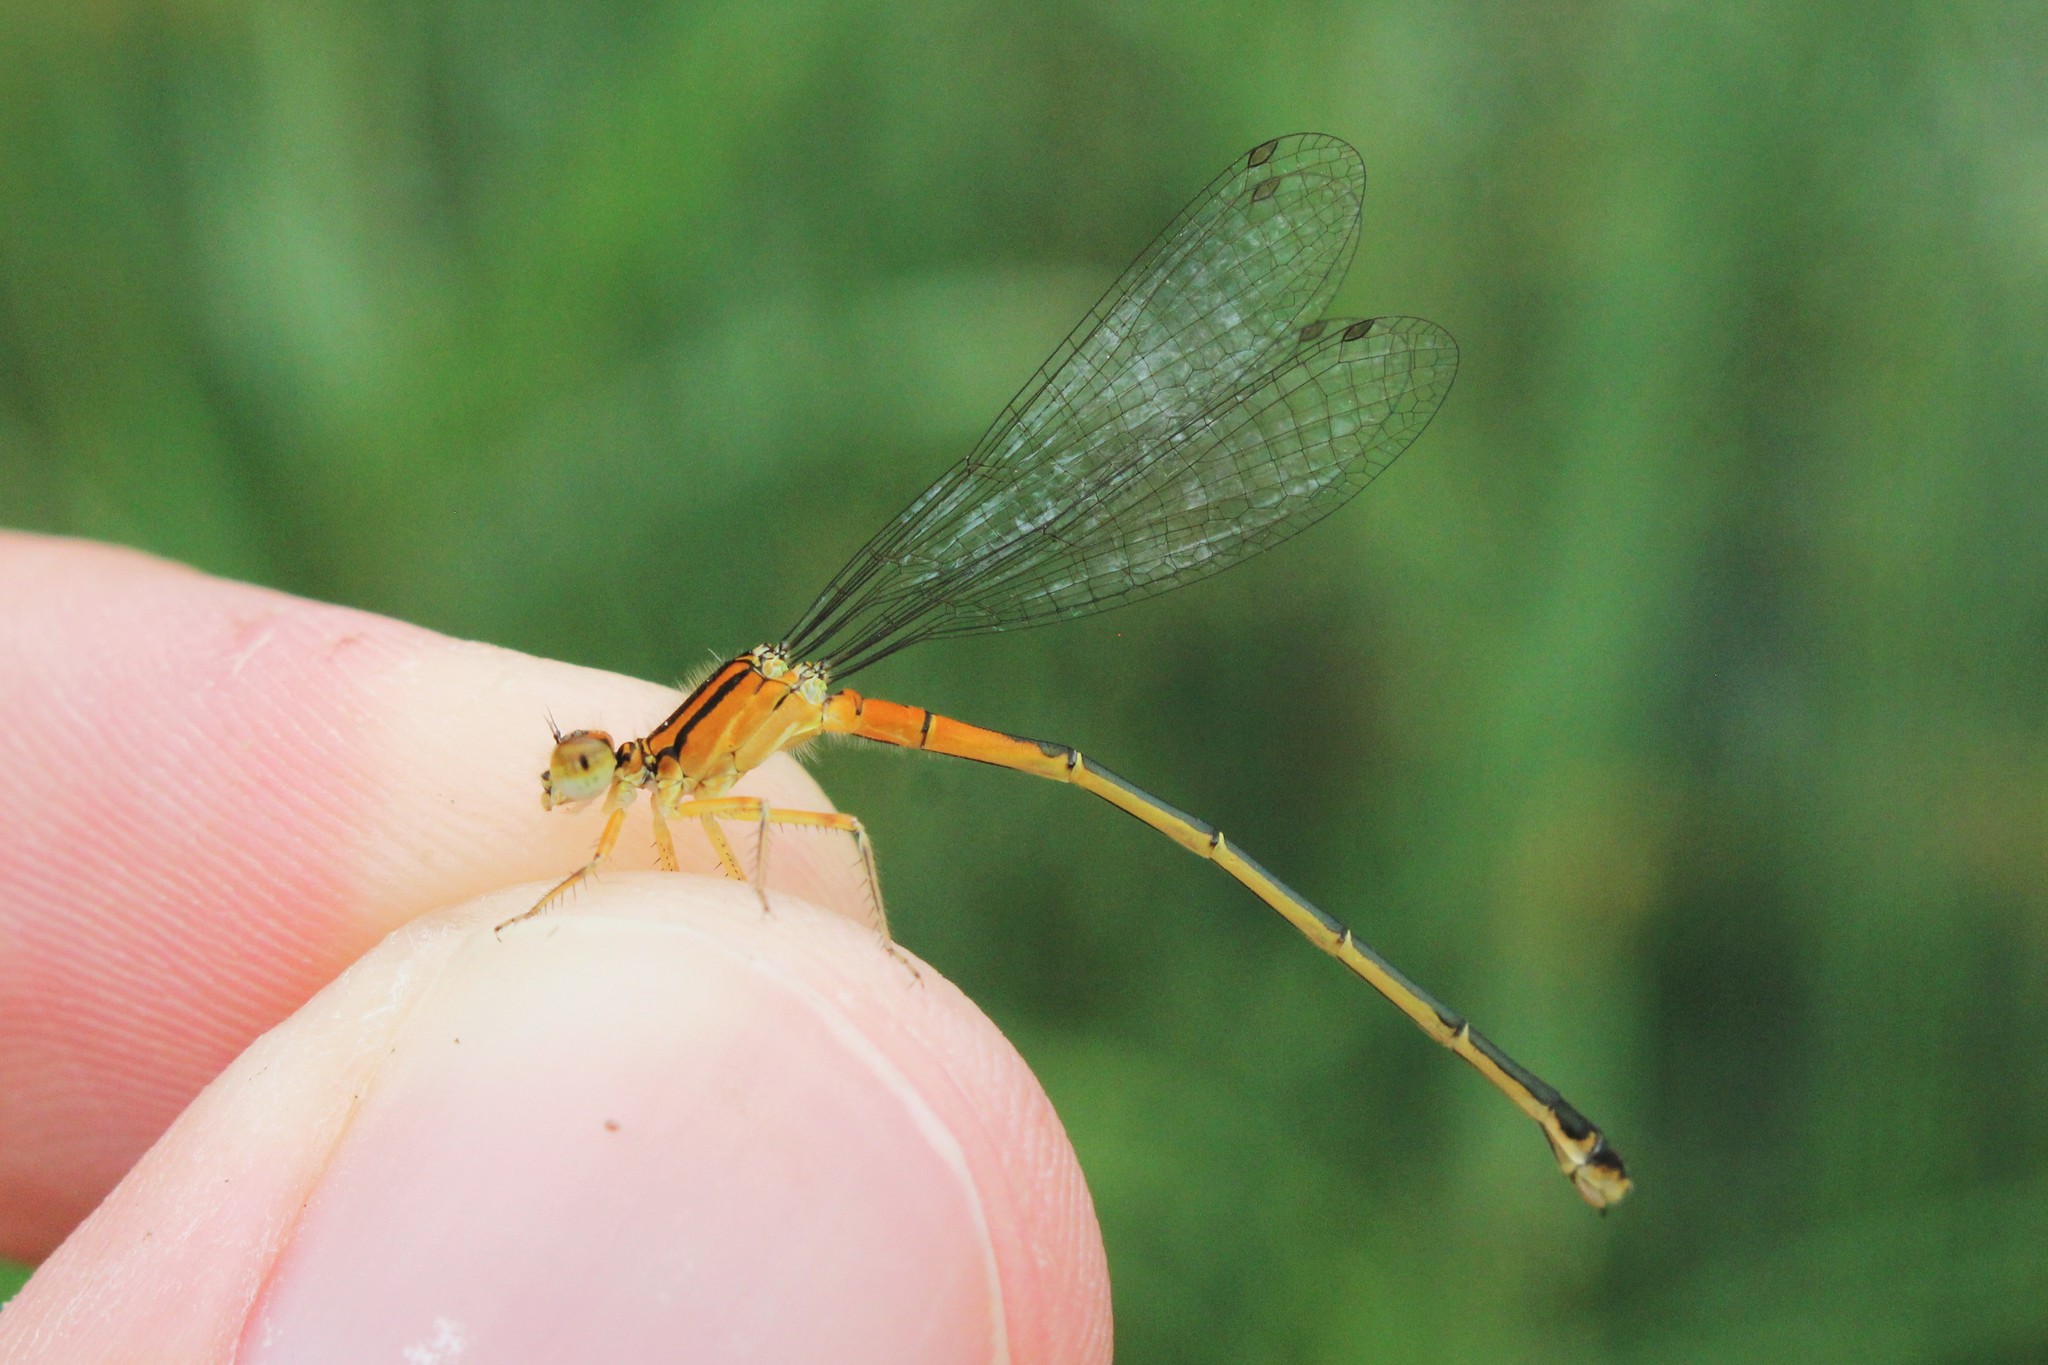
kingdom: Animalia
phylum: Arthropoda
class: Insecta
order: Odonata
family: Coenagrionidae
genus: Ischnura
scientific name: Ischnura verticalis
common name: Eastern forktail
